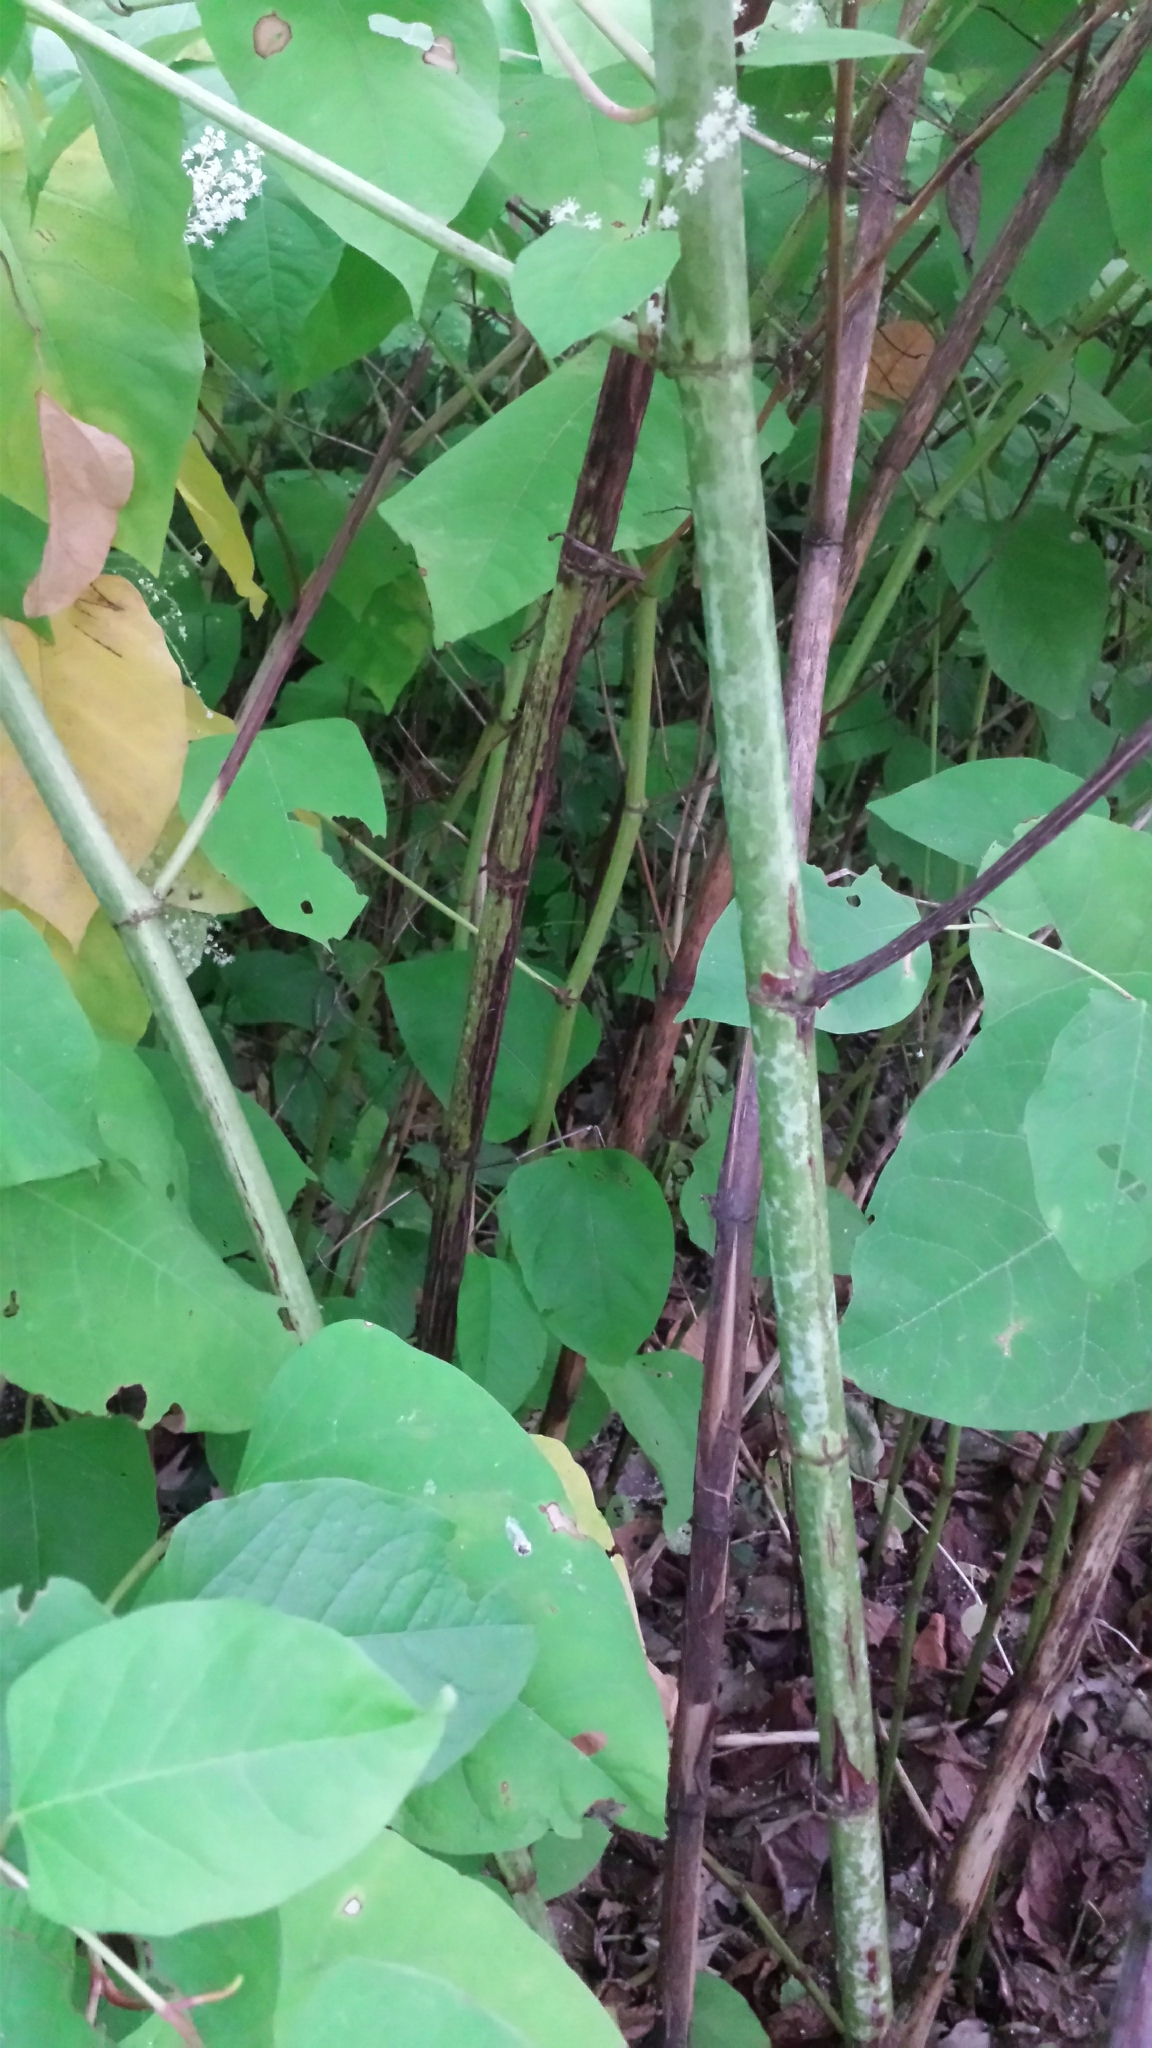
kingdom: Plantae
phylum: Tracheophyta
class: Magnoliopsida
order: Caryophyllales
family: Polygonaceae
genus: Reynoutria
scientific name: Reynoutria japonica
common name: Japanese knotweed
